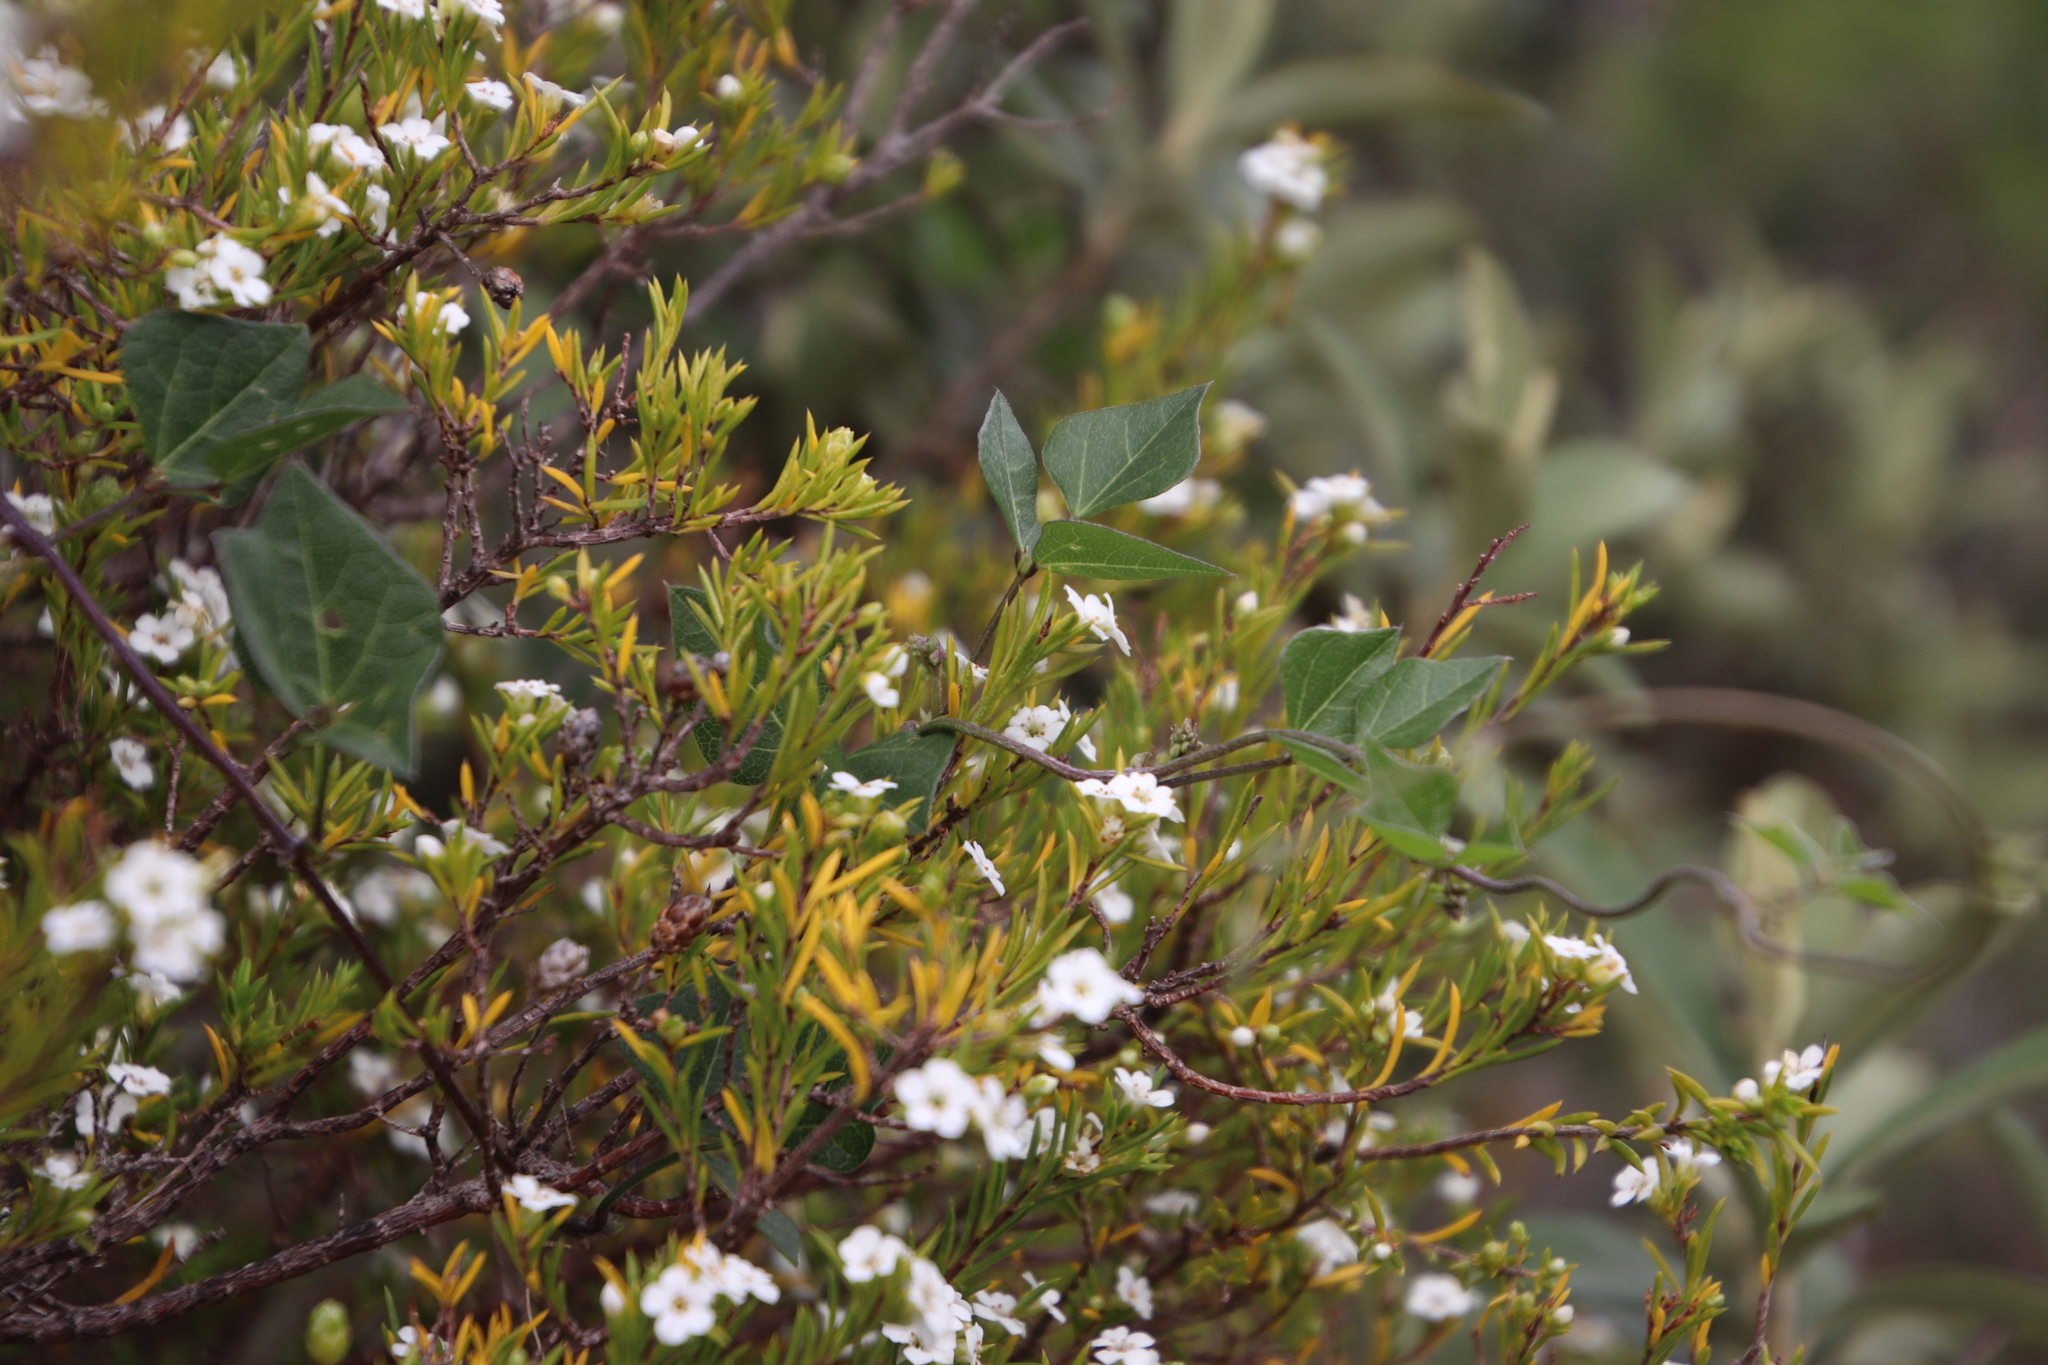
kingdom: Plantae
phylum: Tracheophyta
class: Magnoliopsida
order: Fabales
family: Fabaceae
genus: Dipogon
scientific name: Dipogon lignosus
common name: Okie bean
